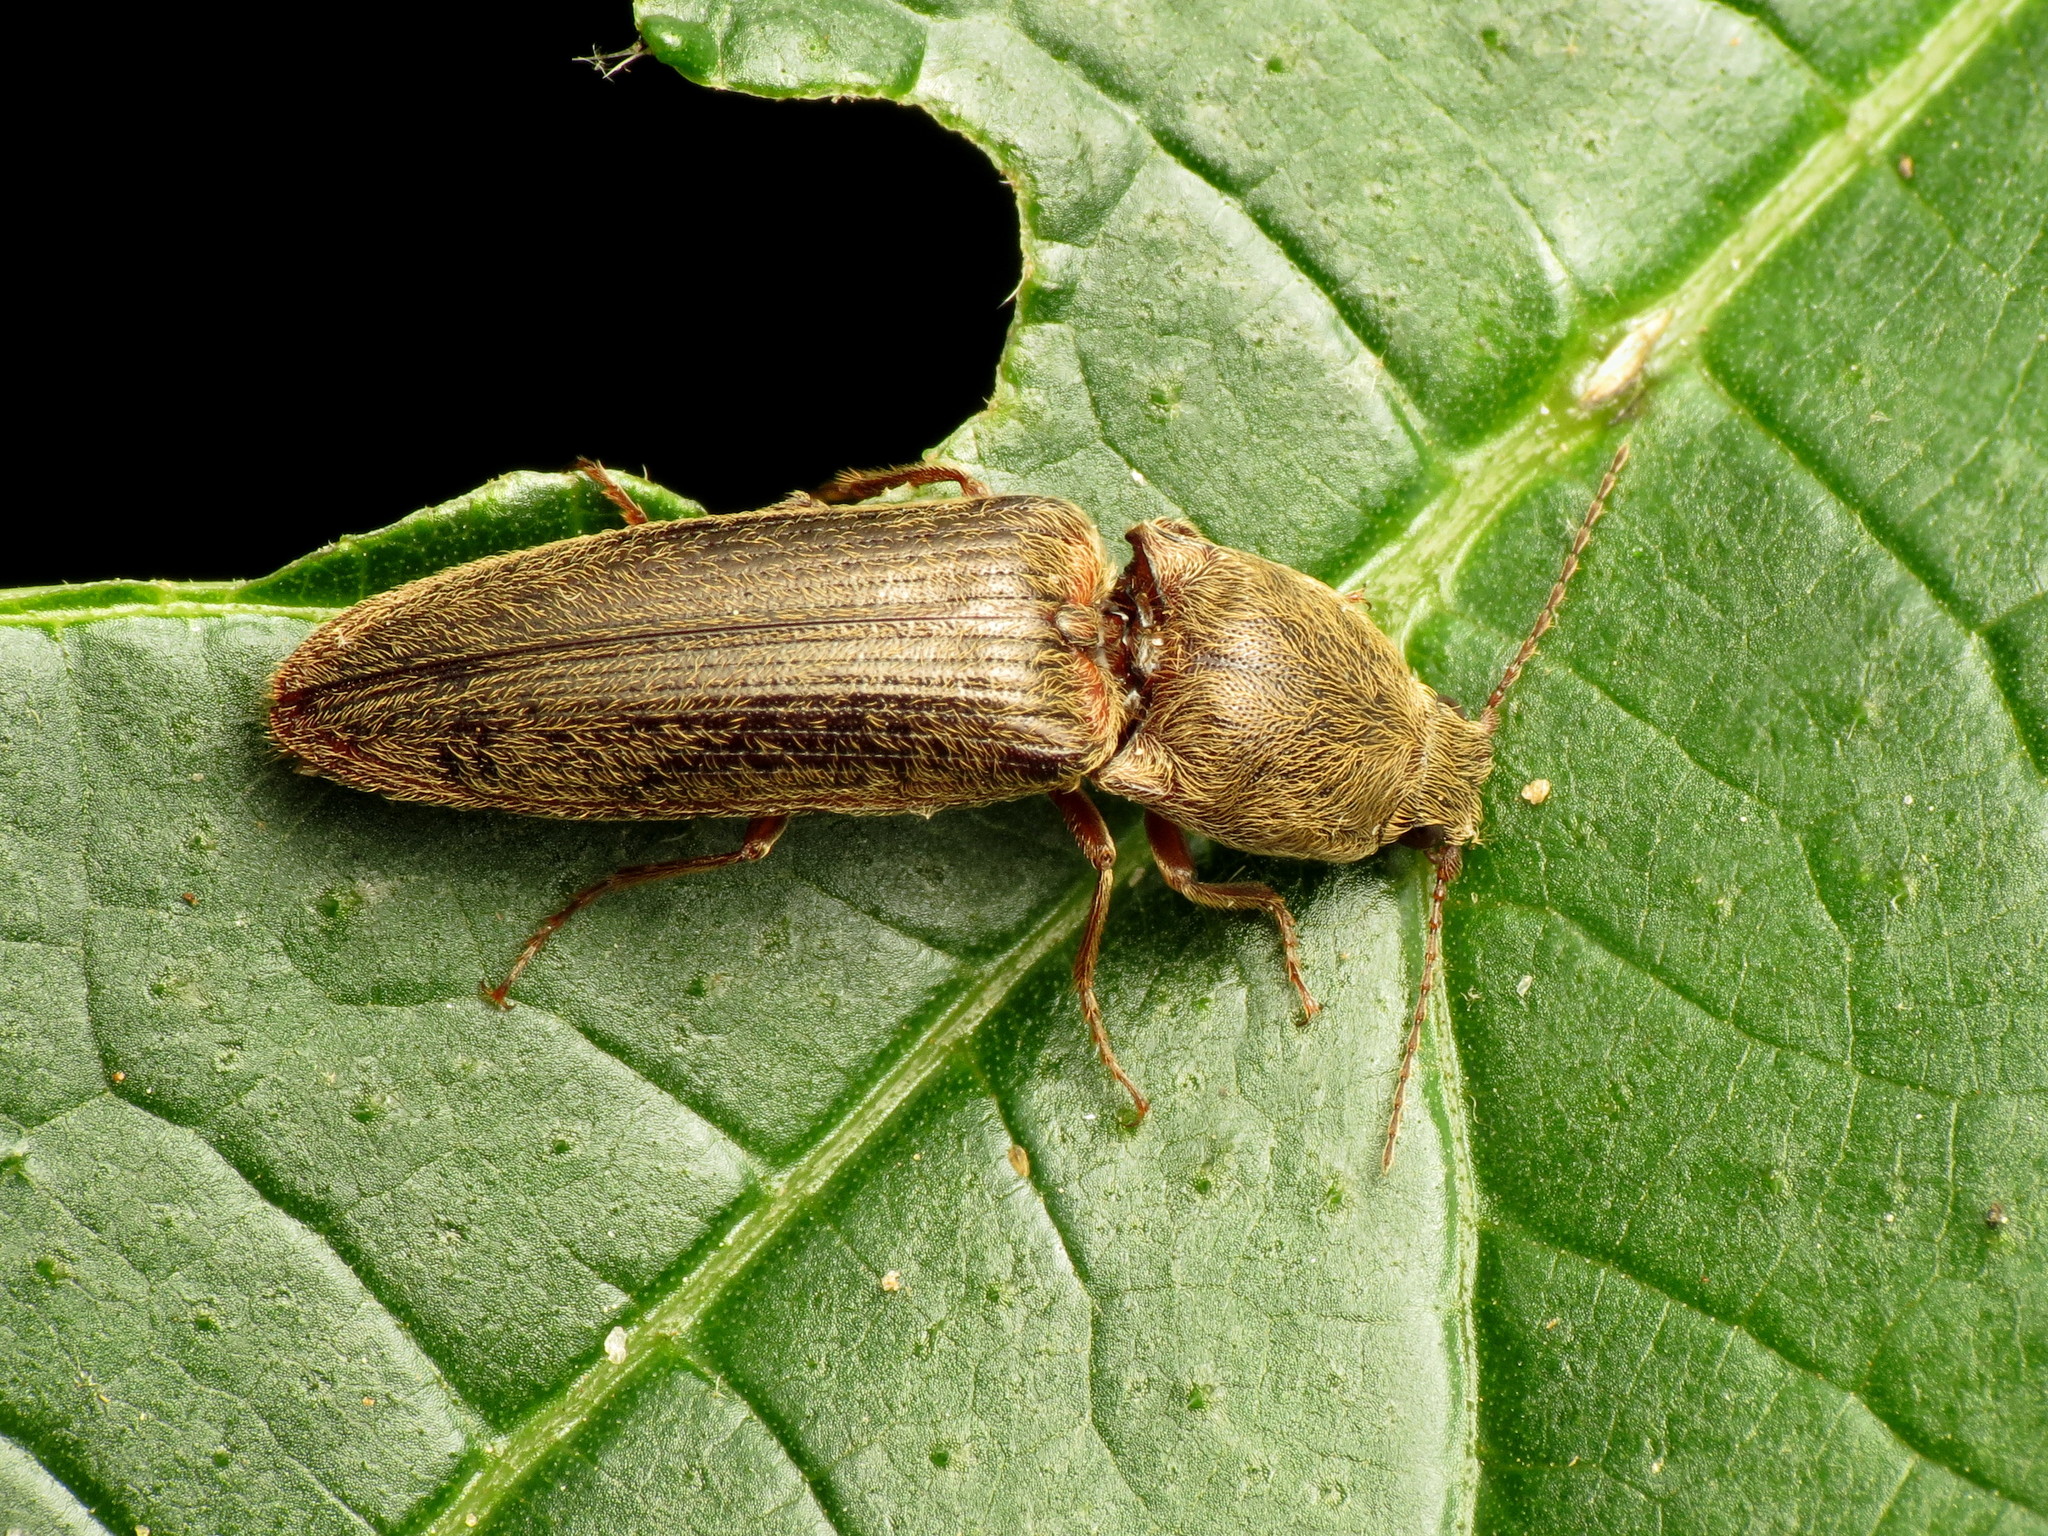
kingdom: Animalia
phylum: Arthropoda
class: Insecta
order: Coleoptera
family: Elateridae
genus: Gambrinus
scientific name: Gambrinus griseus
